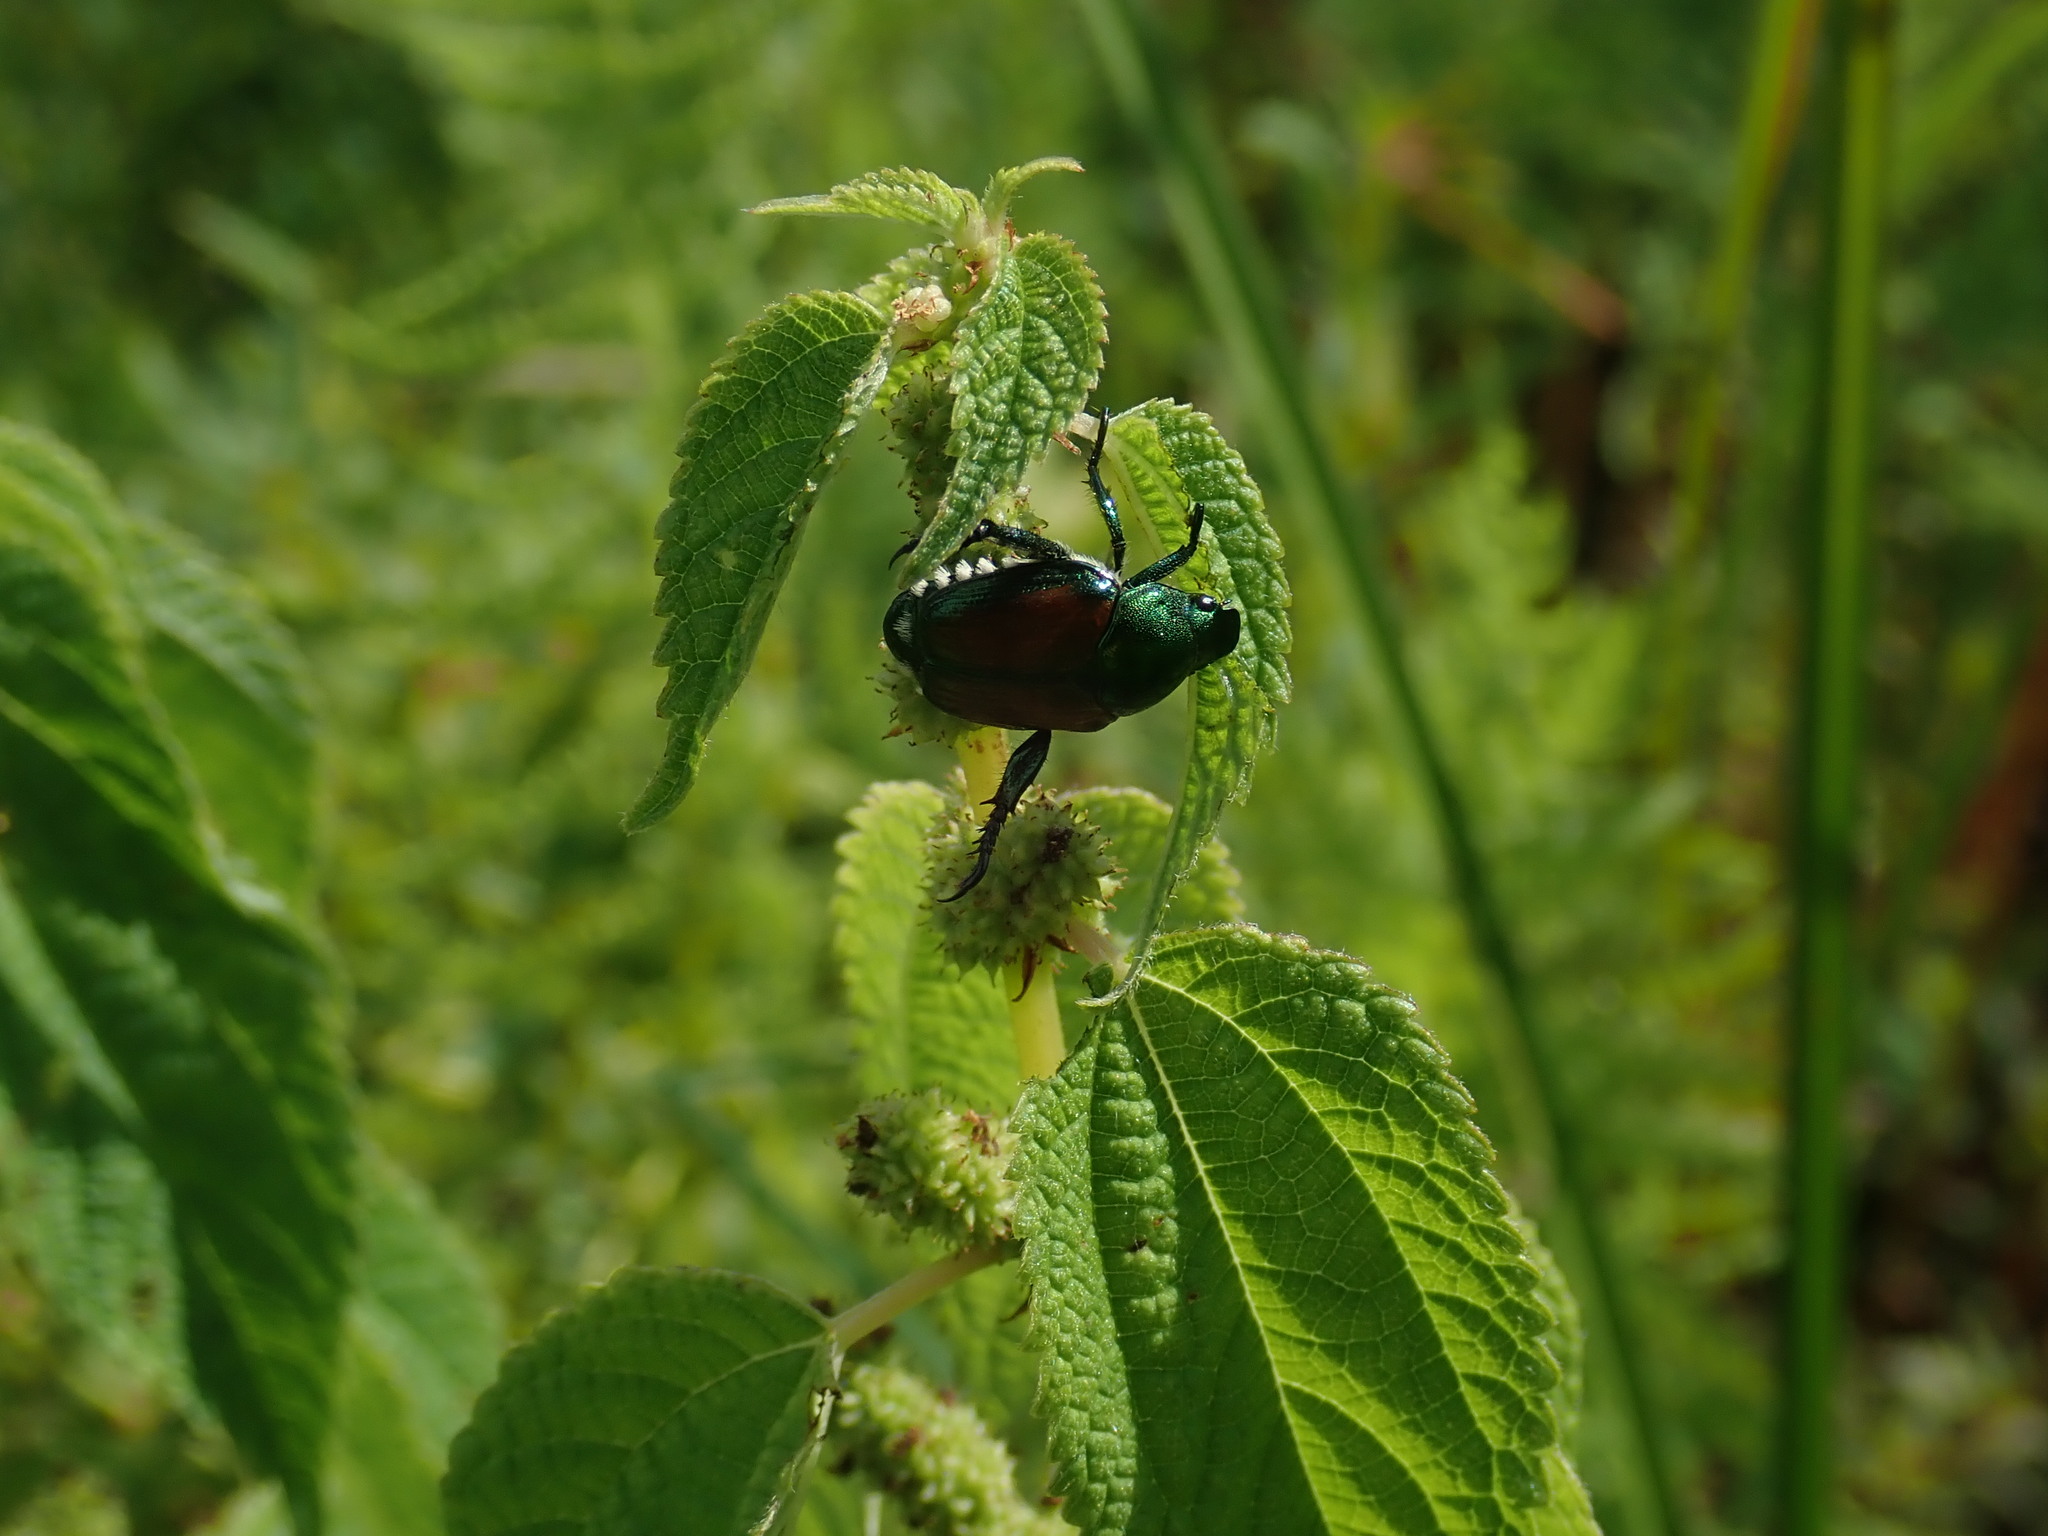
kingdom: Animalia
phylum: Arthropoda
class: Insecta
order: Coleoptera
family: Scarabaeidae
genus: Popillia
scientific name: Popillia japonica
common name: Japanese beetle
